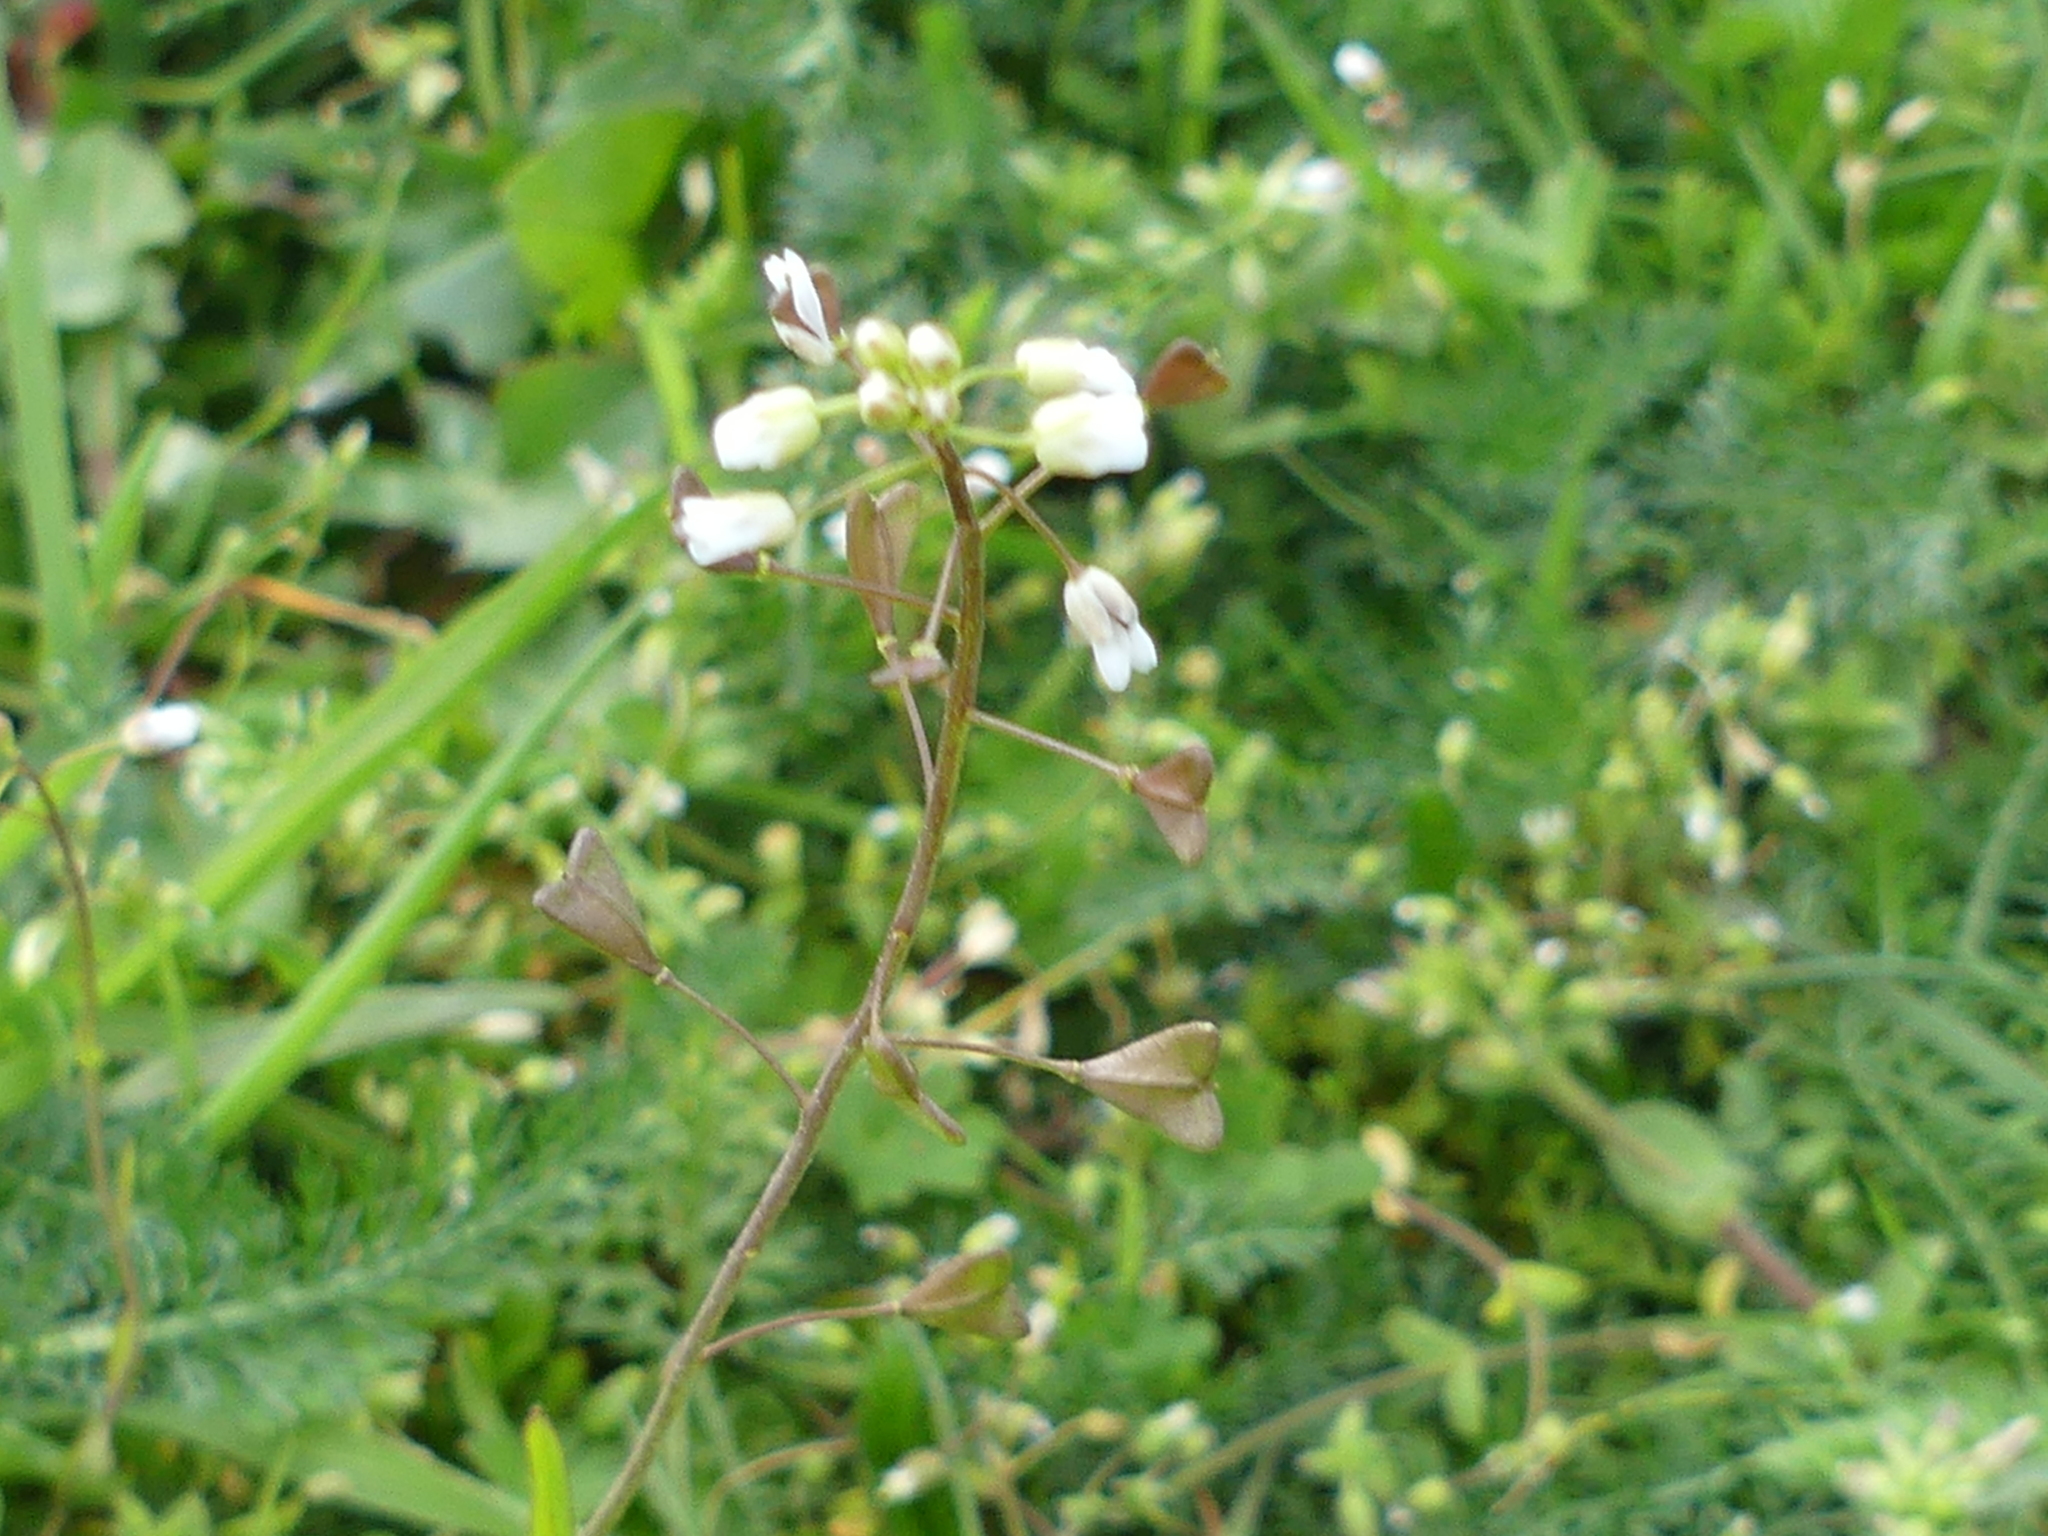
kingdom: Plantae
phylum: Tracheophyta
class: Magnoliopsida
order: Brassicales
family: Brassicaceae
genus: Capsella
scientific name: Capsella bursa-pastoris
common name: Shepherd's purse
